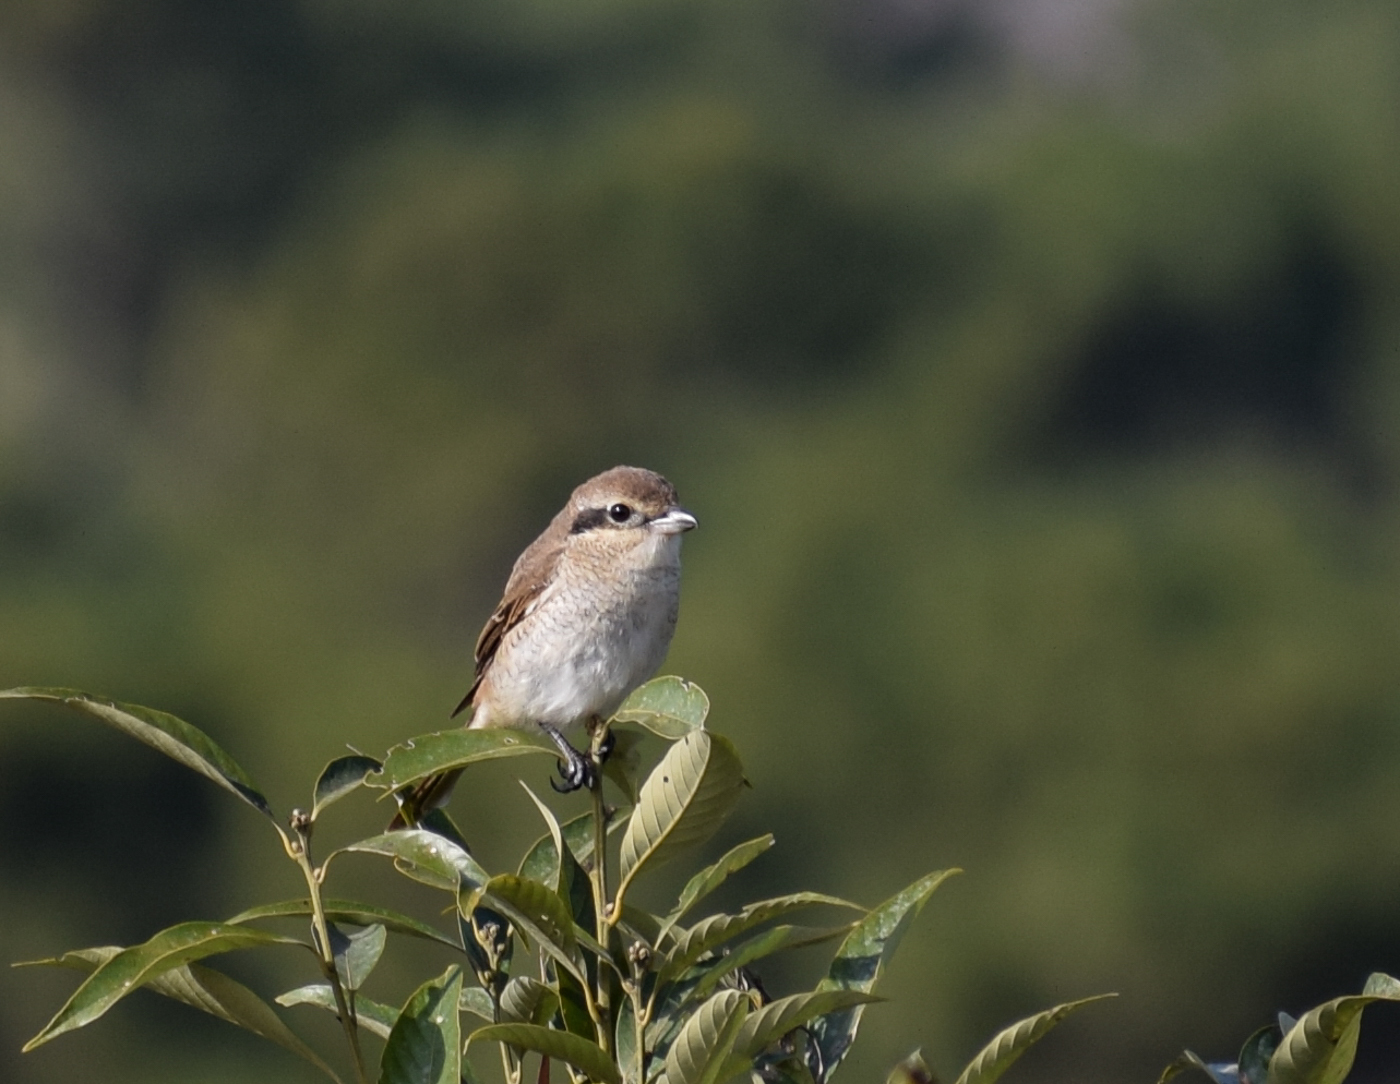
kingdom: Animalia
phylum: Chordata
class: Aves
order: Passeriformes
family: Laniidae
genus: Lanius
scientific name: Lanius cristatus
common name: Brown shrike
